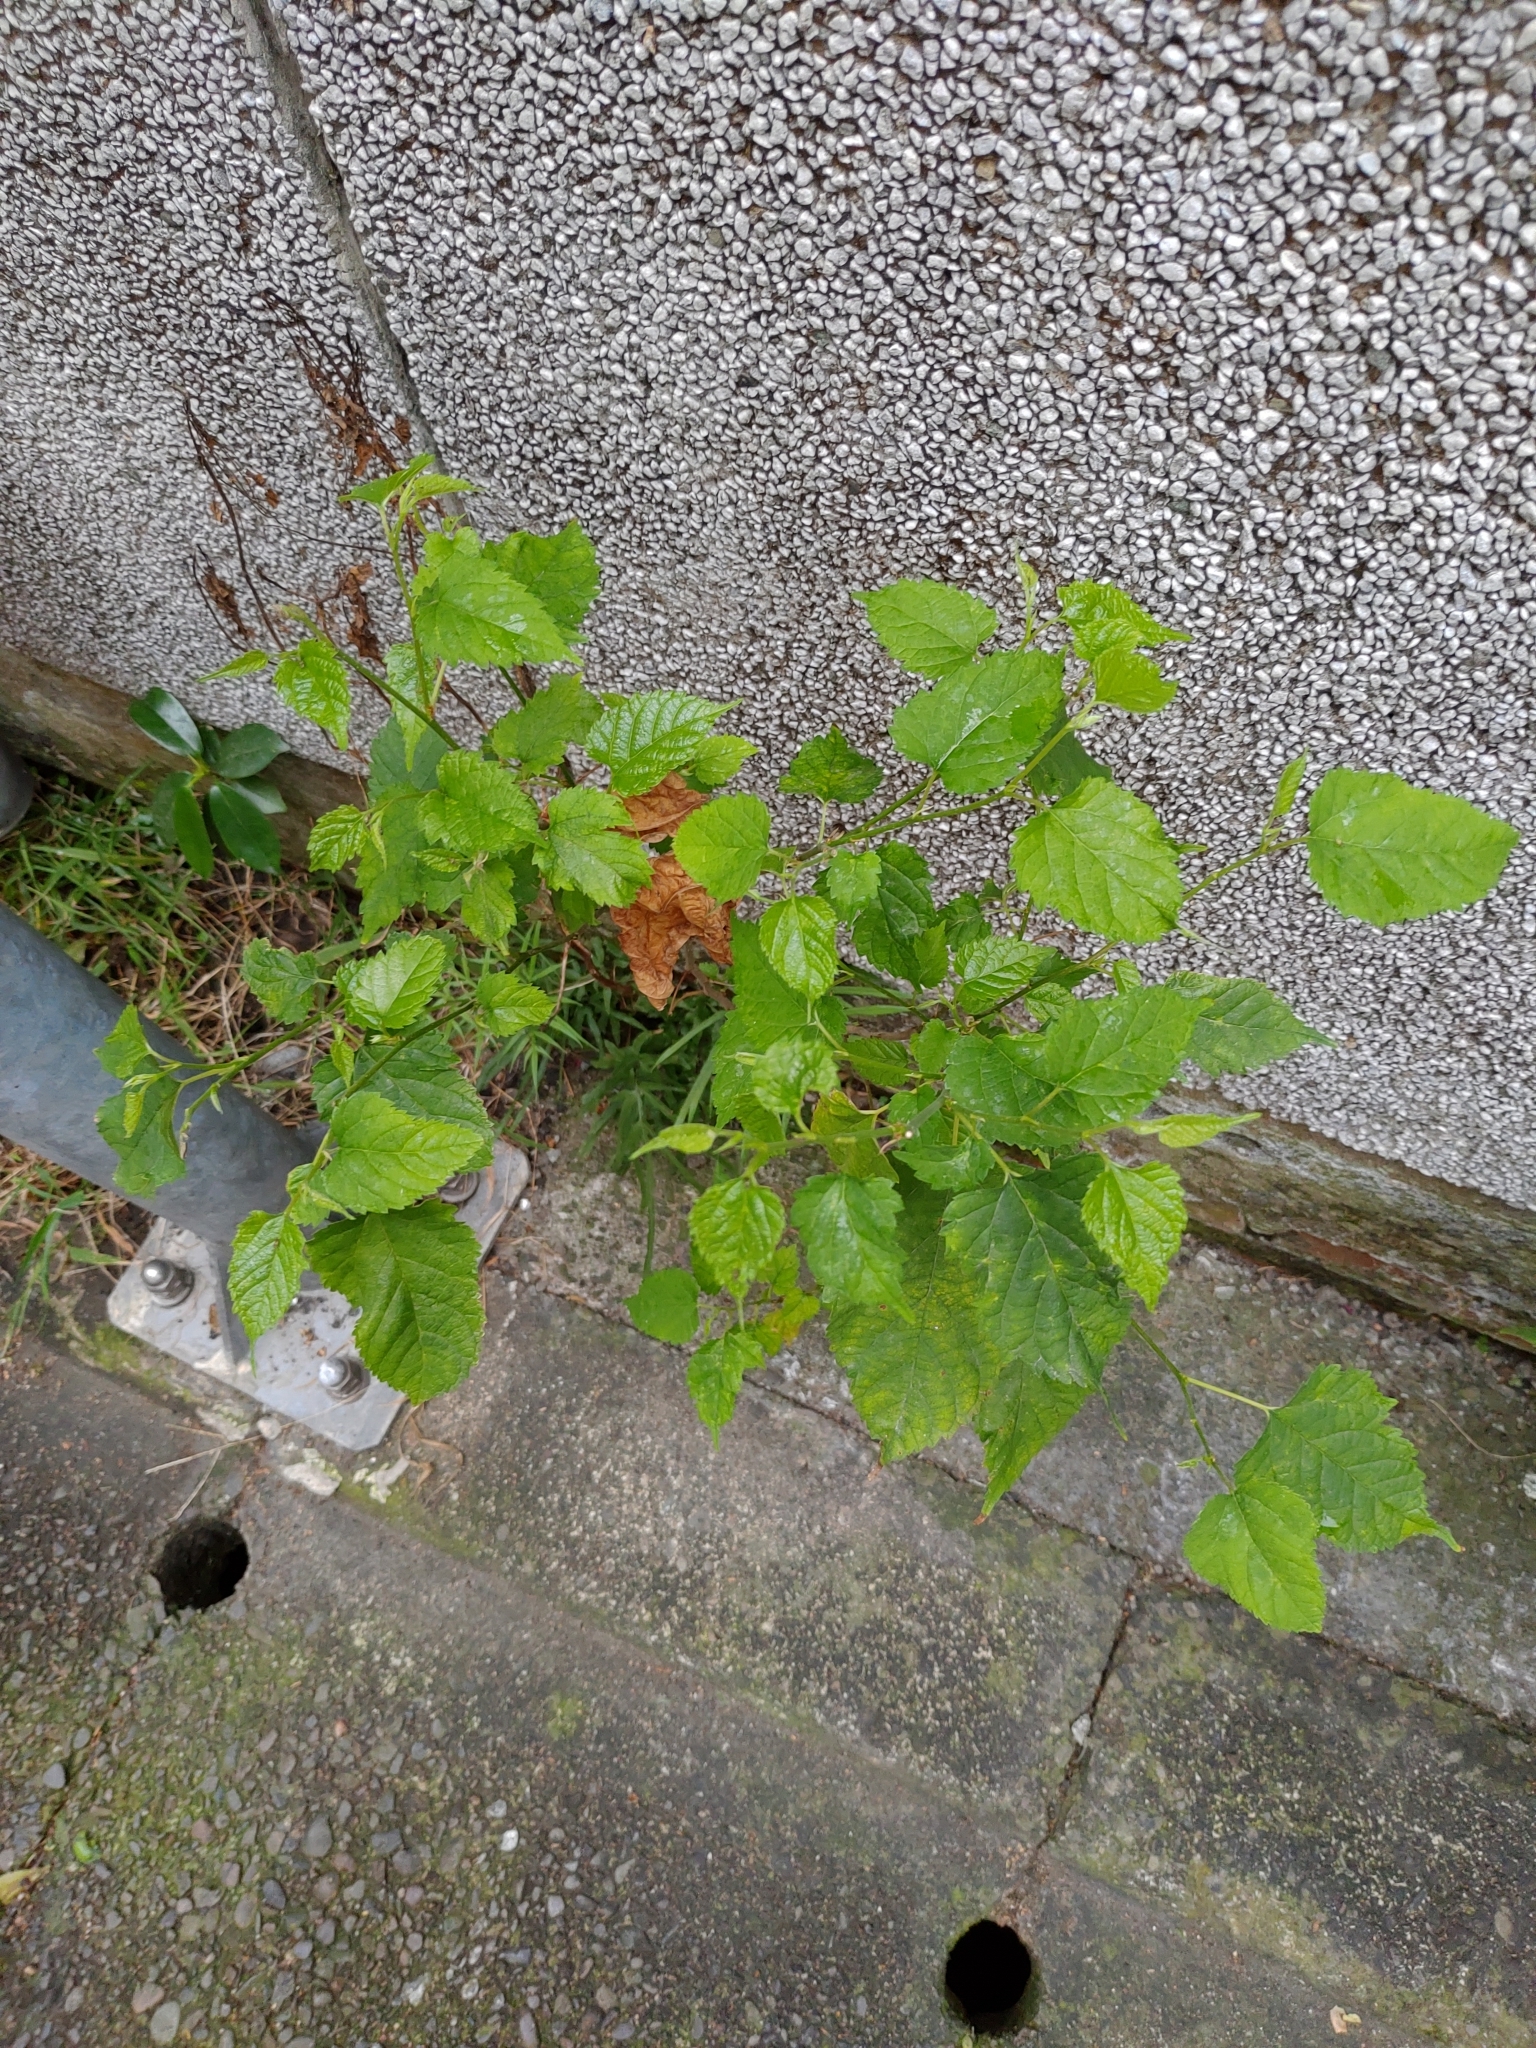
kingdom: Plantae
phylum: Tracheophyta
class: Magnoliopsida
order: Rosales
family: Moraceae
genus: Morus
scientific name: Morus indica
